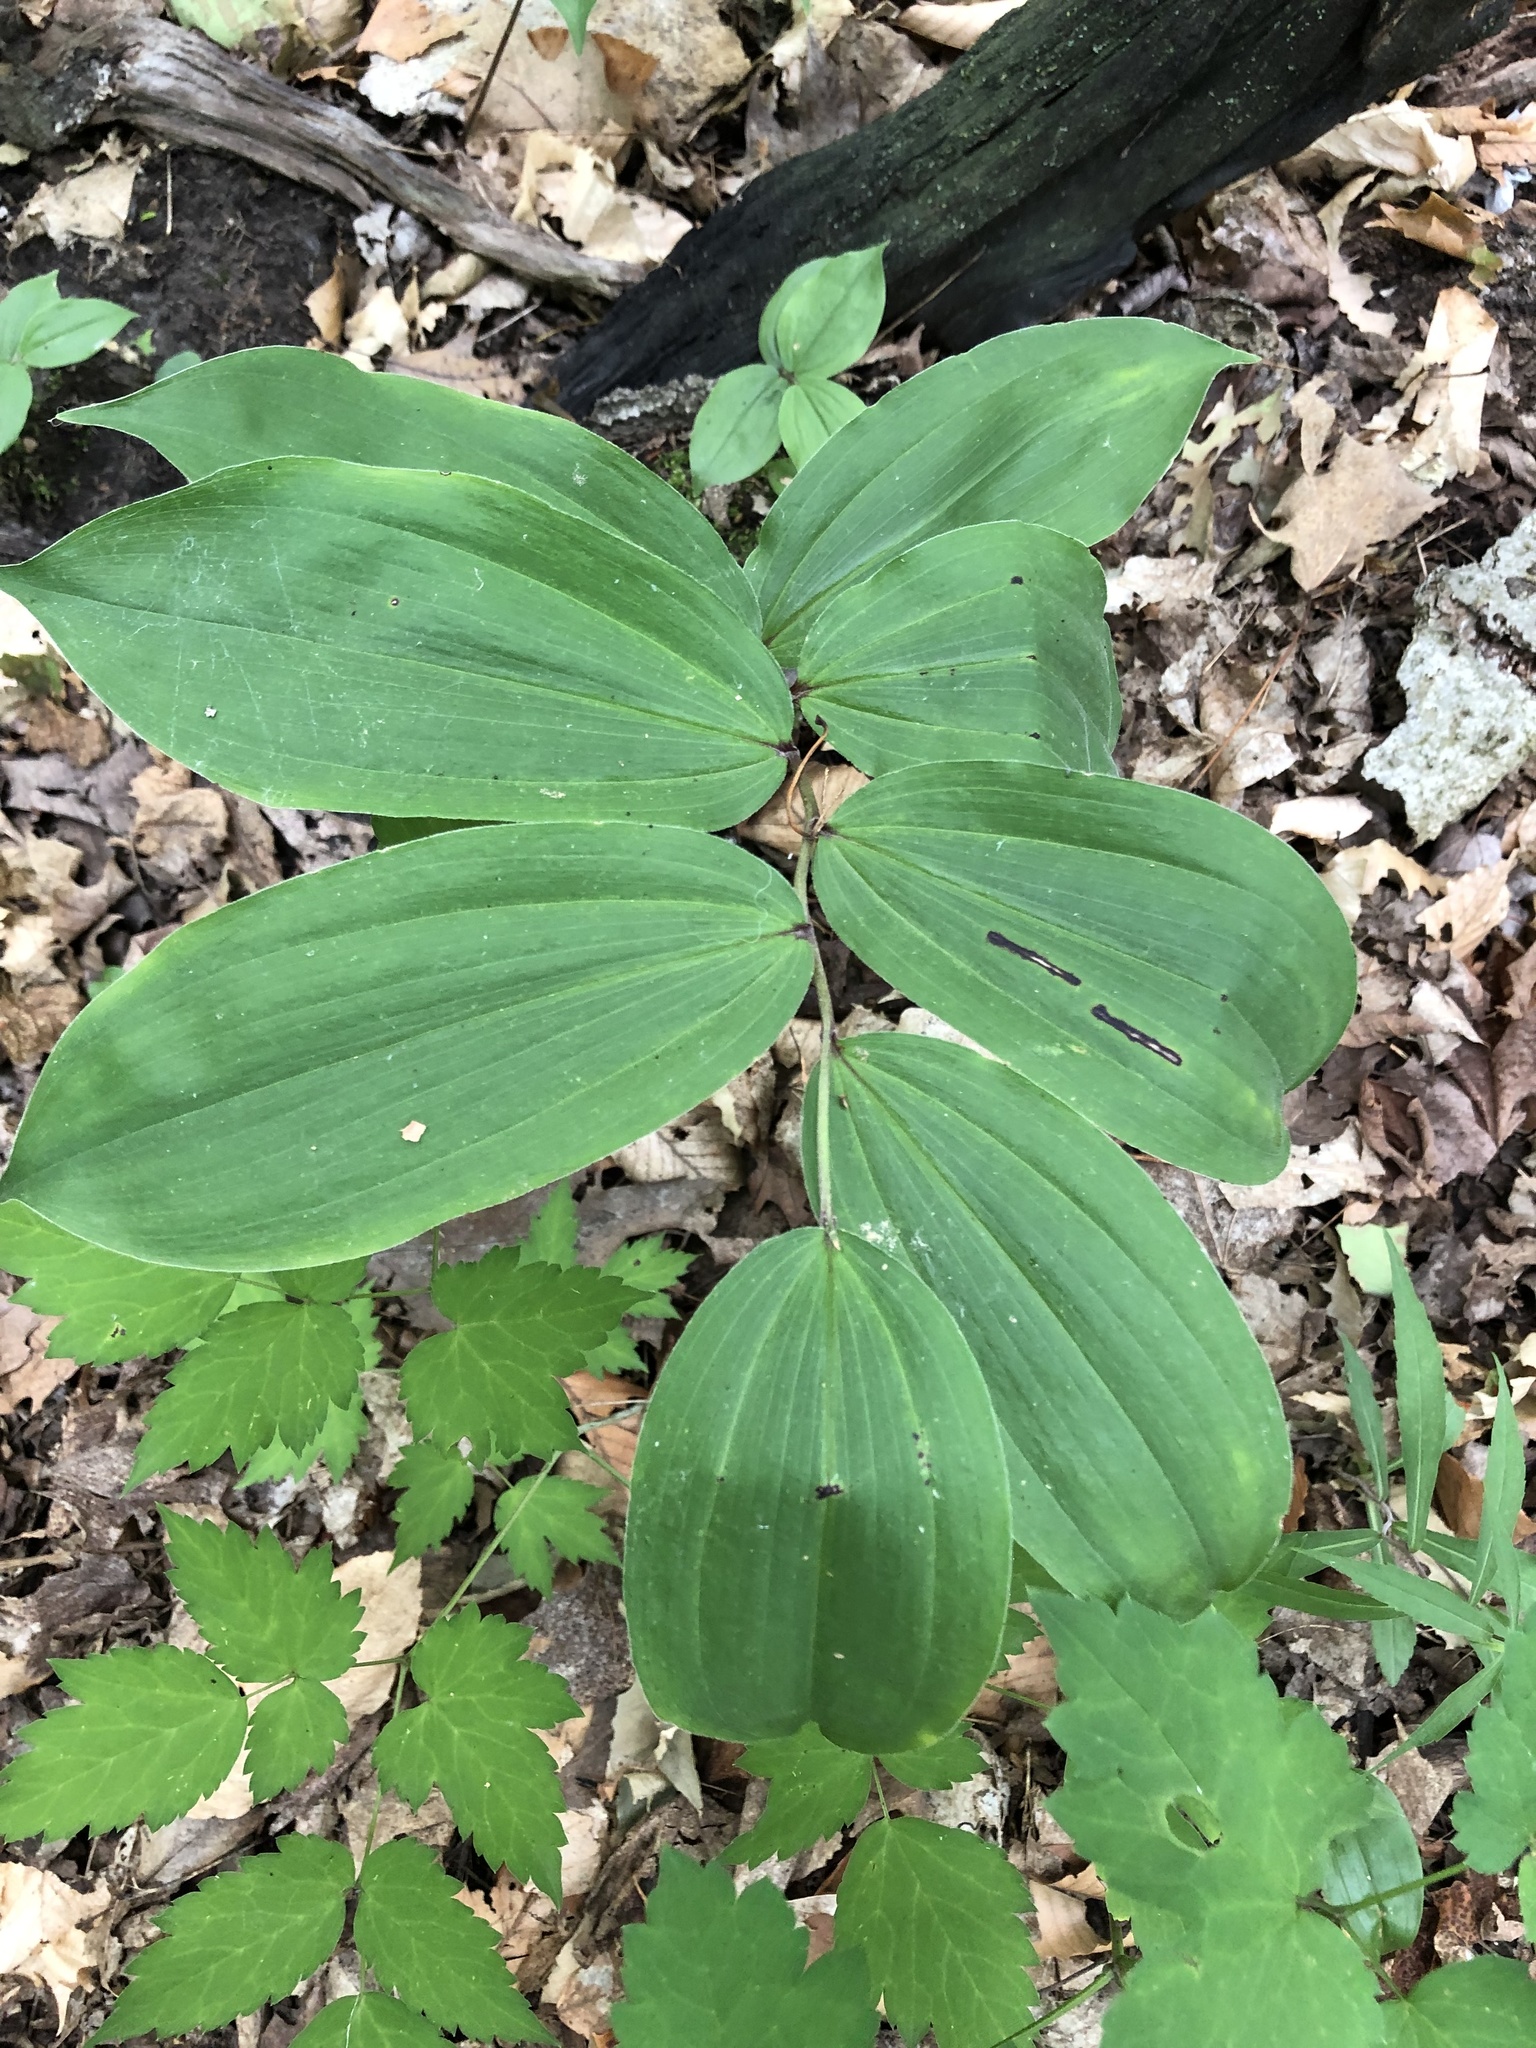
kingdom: Plantae
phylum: Tracheophyta
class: Liliopsida
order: Asparagales
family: Asparagaceae
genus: Maianthemum
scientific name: Maianthemum racemosum
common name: False spikenard
